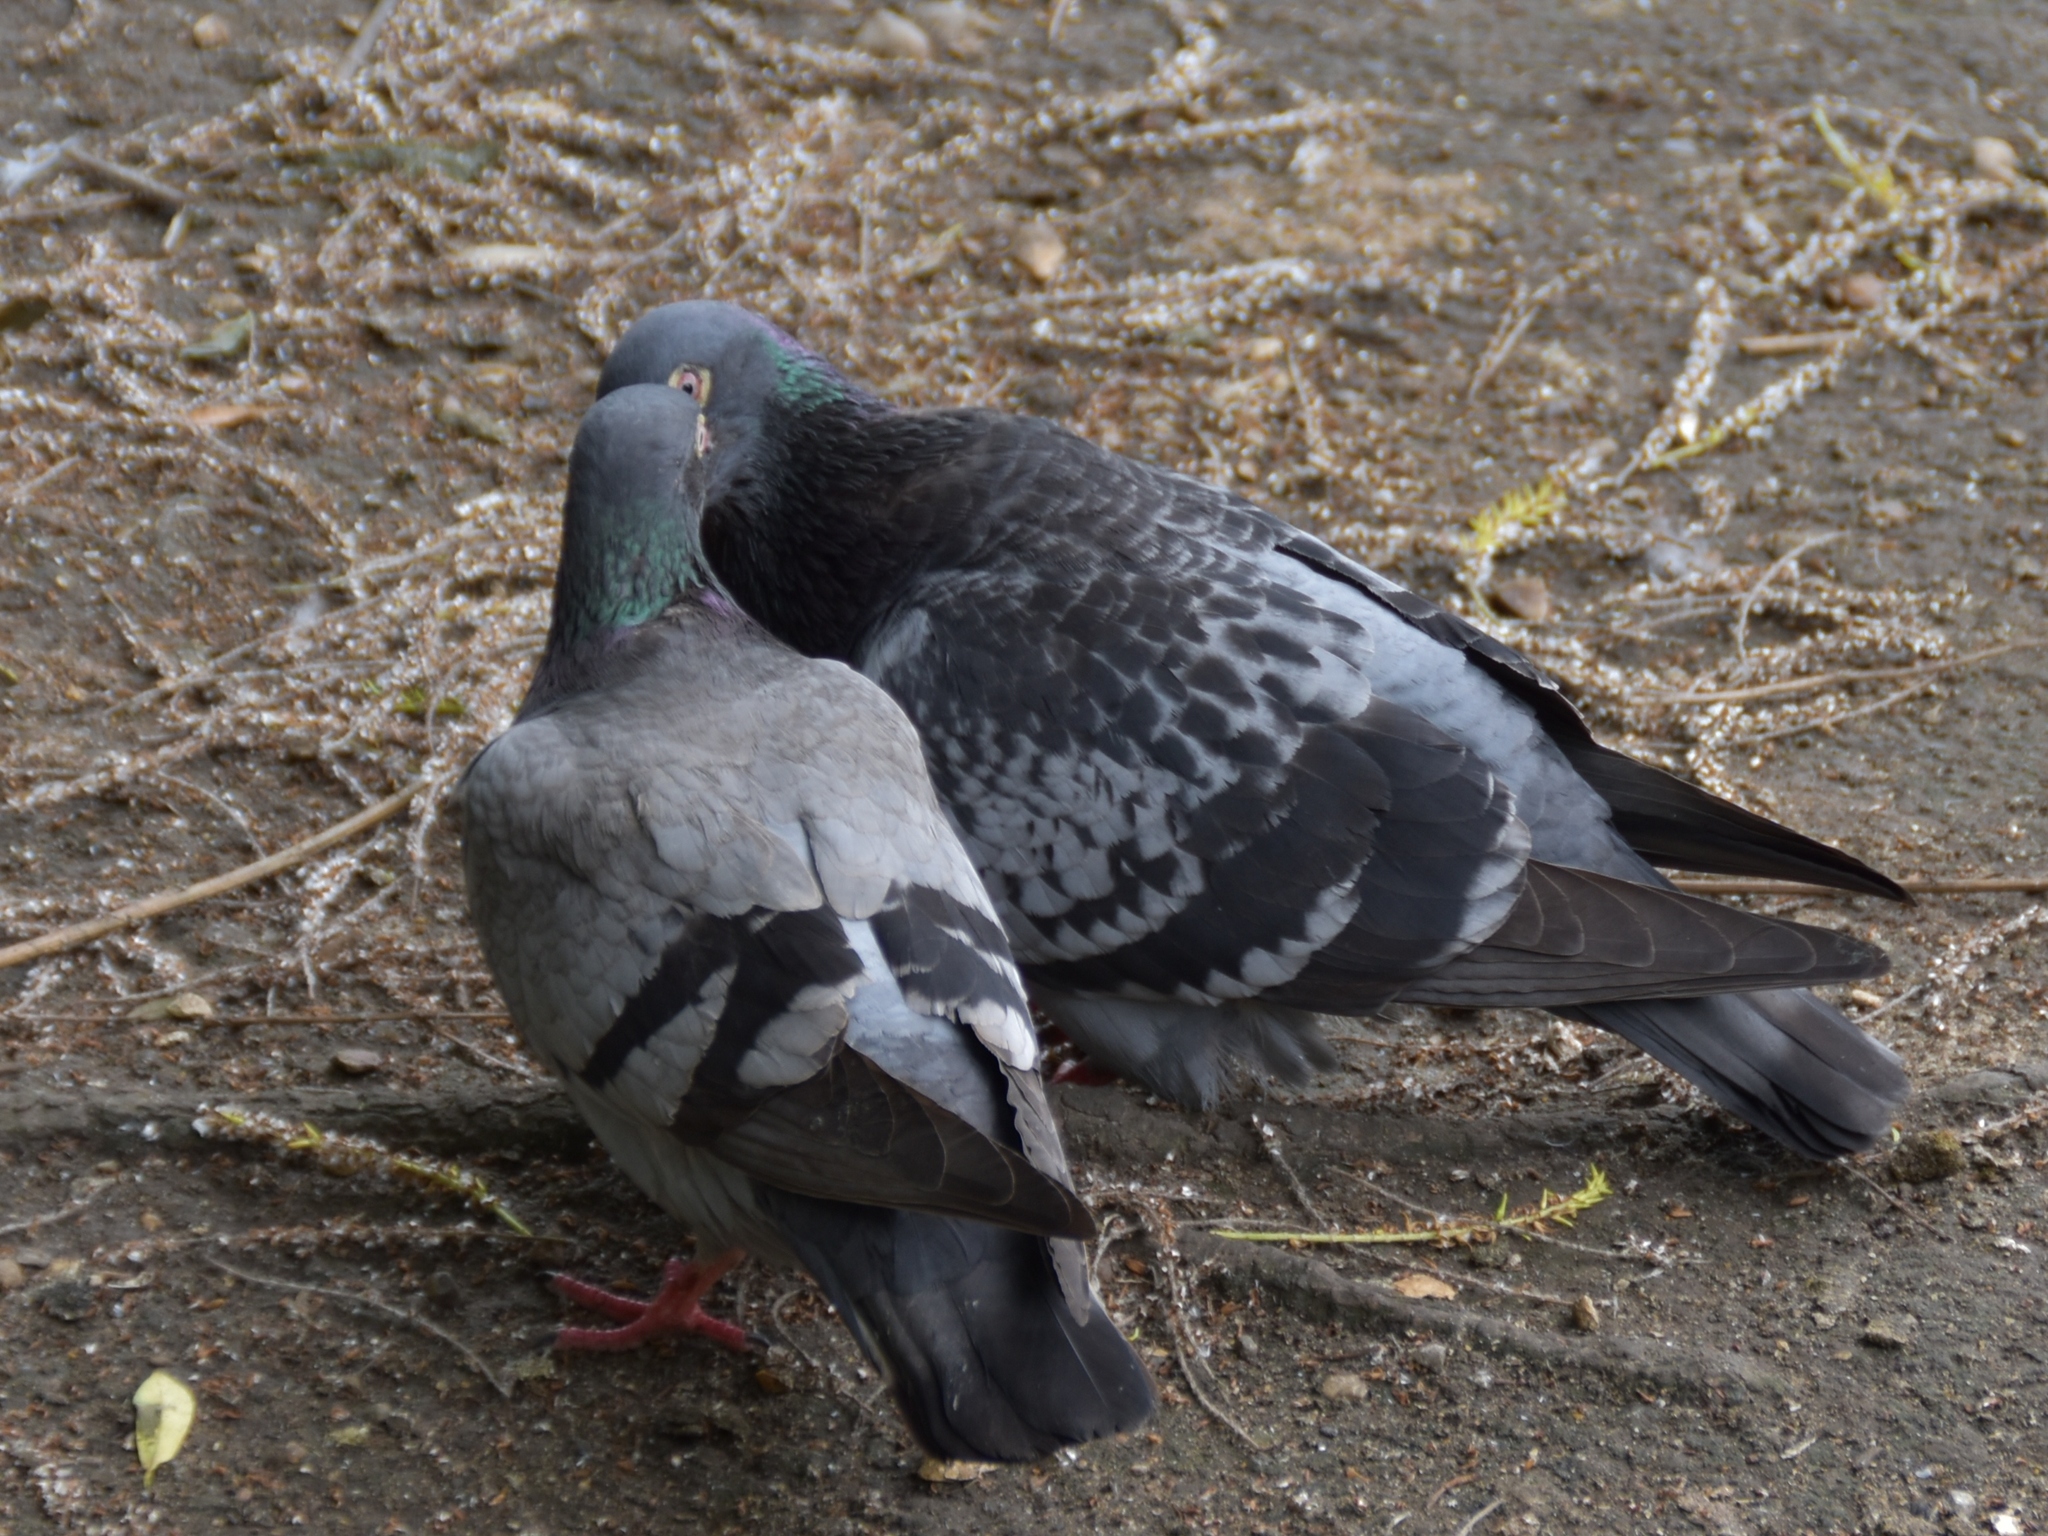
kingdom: Animalia
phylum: Chordata
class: Aves
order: Columbiformes
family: Columbidae
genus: Columba
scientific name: Columba livia
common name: Rock pigeon
